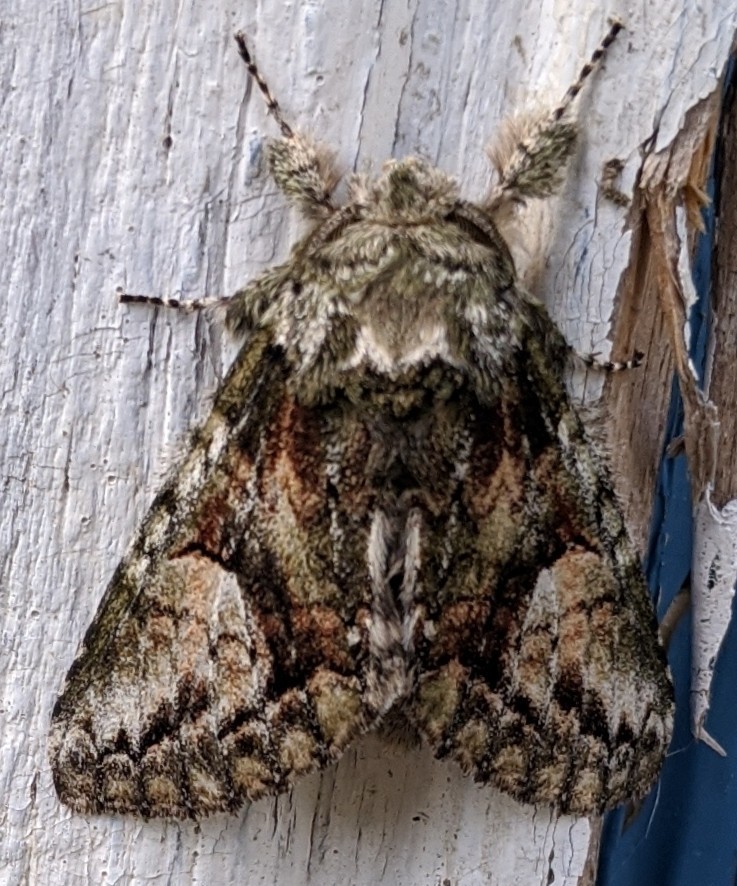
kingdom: Animalia
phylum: Arthropoda
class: Insecta
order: Lepidoptera
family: Notodontidae
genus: Heterocampa
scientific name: Heterocampa
